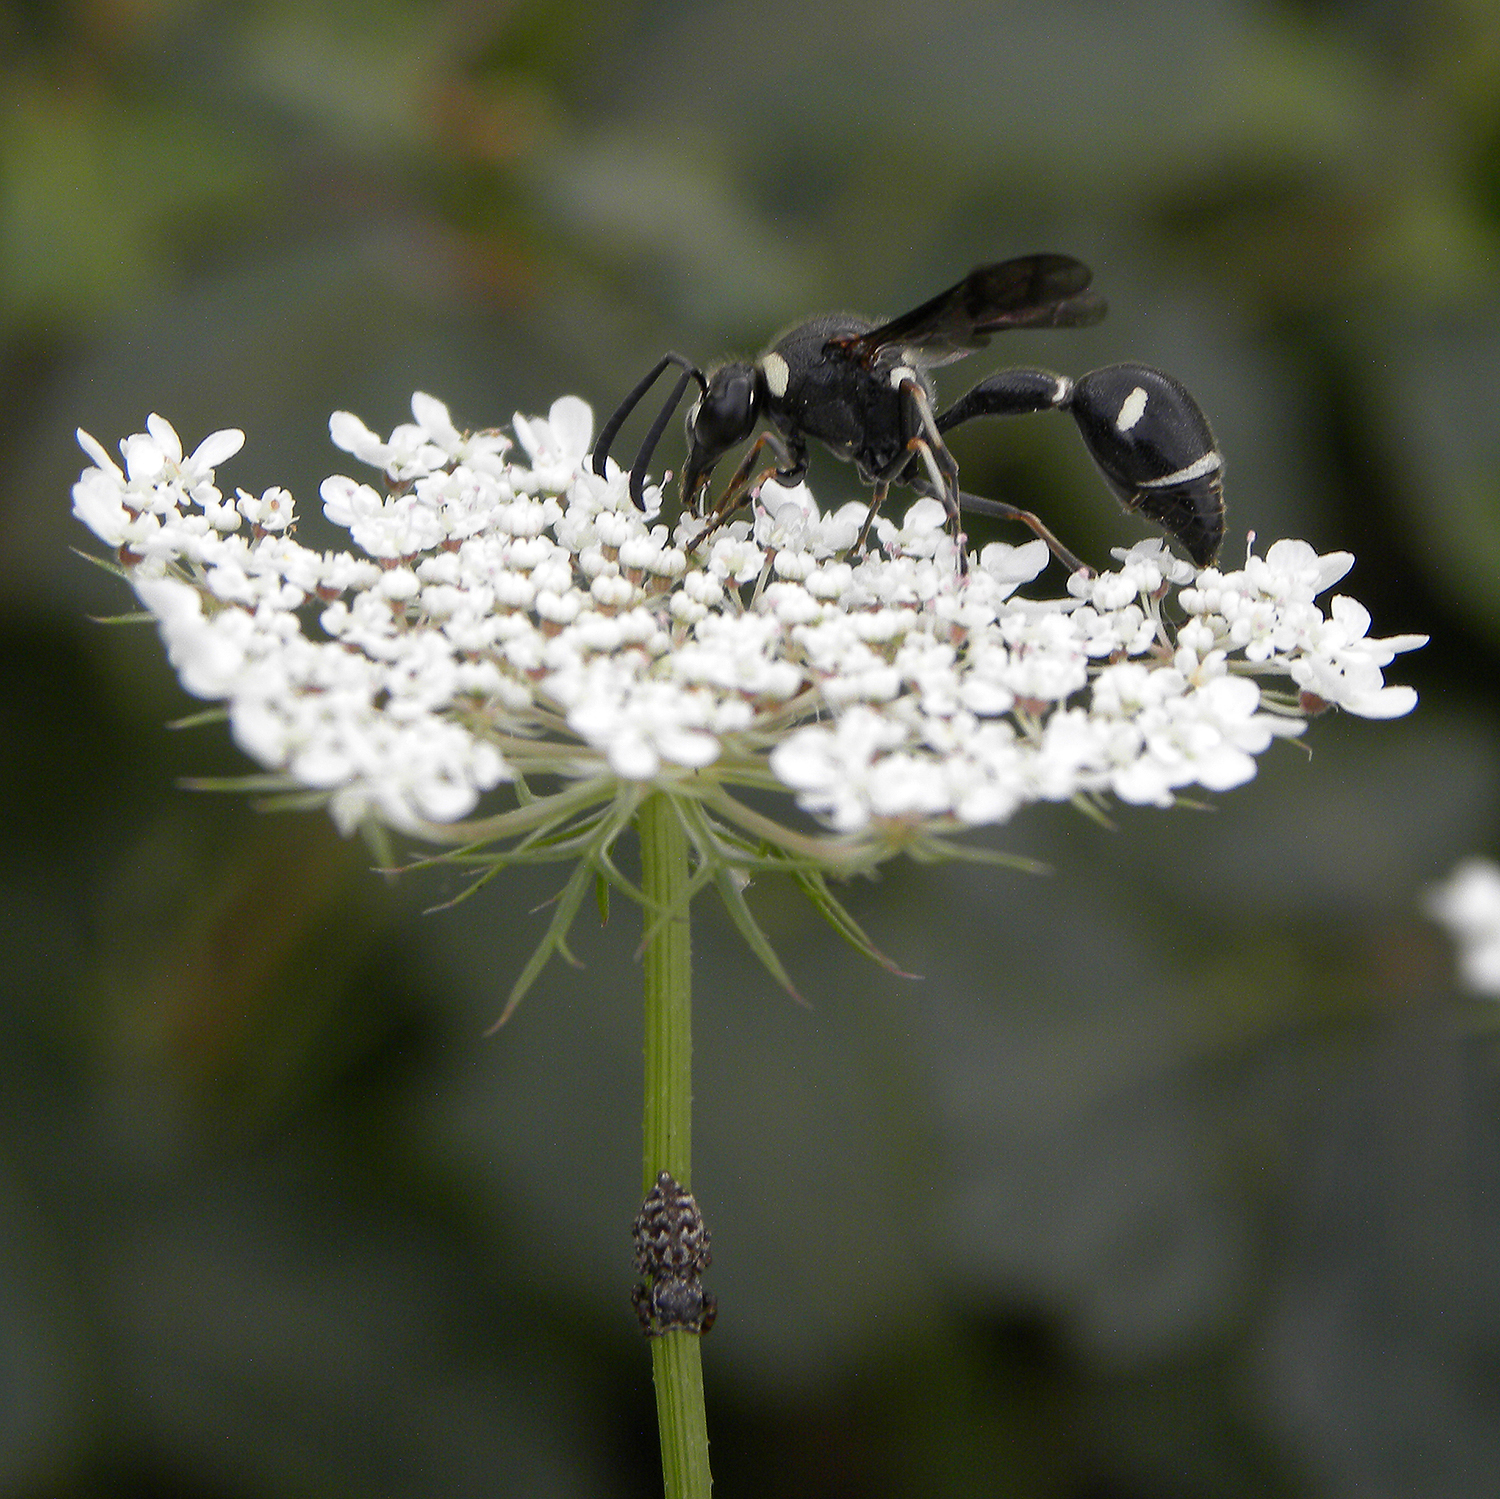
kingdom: Animalia
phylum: Arthropoda
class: Insecta
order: Hymenoptera
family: Vespidae
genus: Eumenes
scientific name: Eumenes fraternus
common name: Fraternal potter wasp
